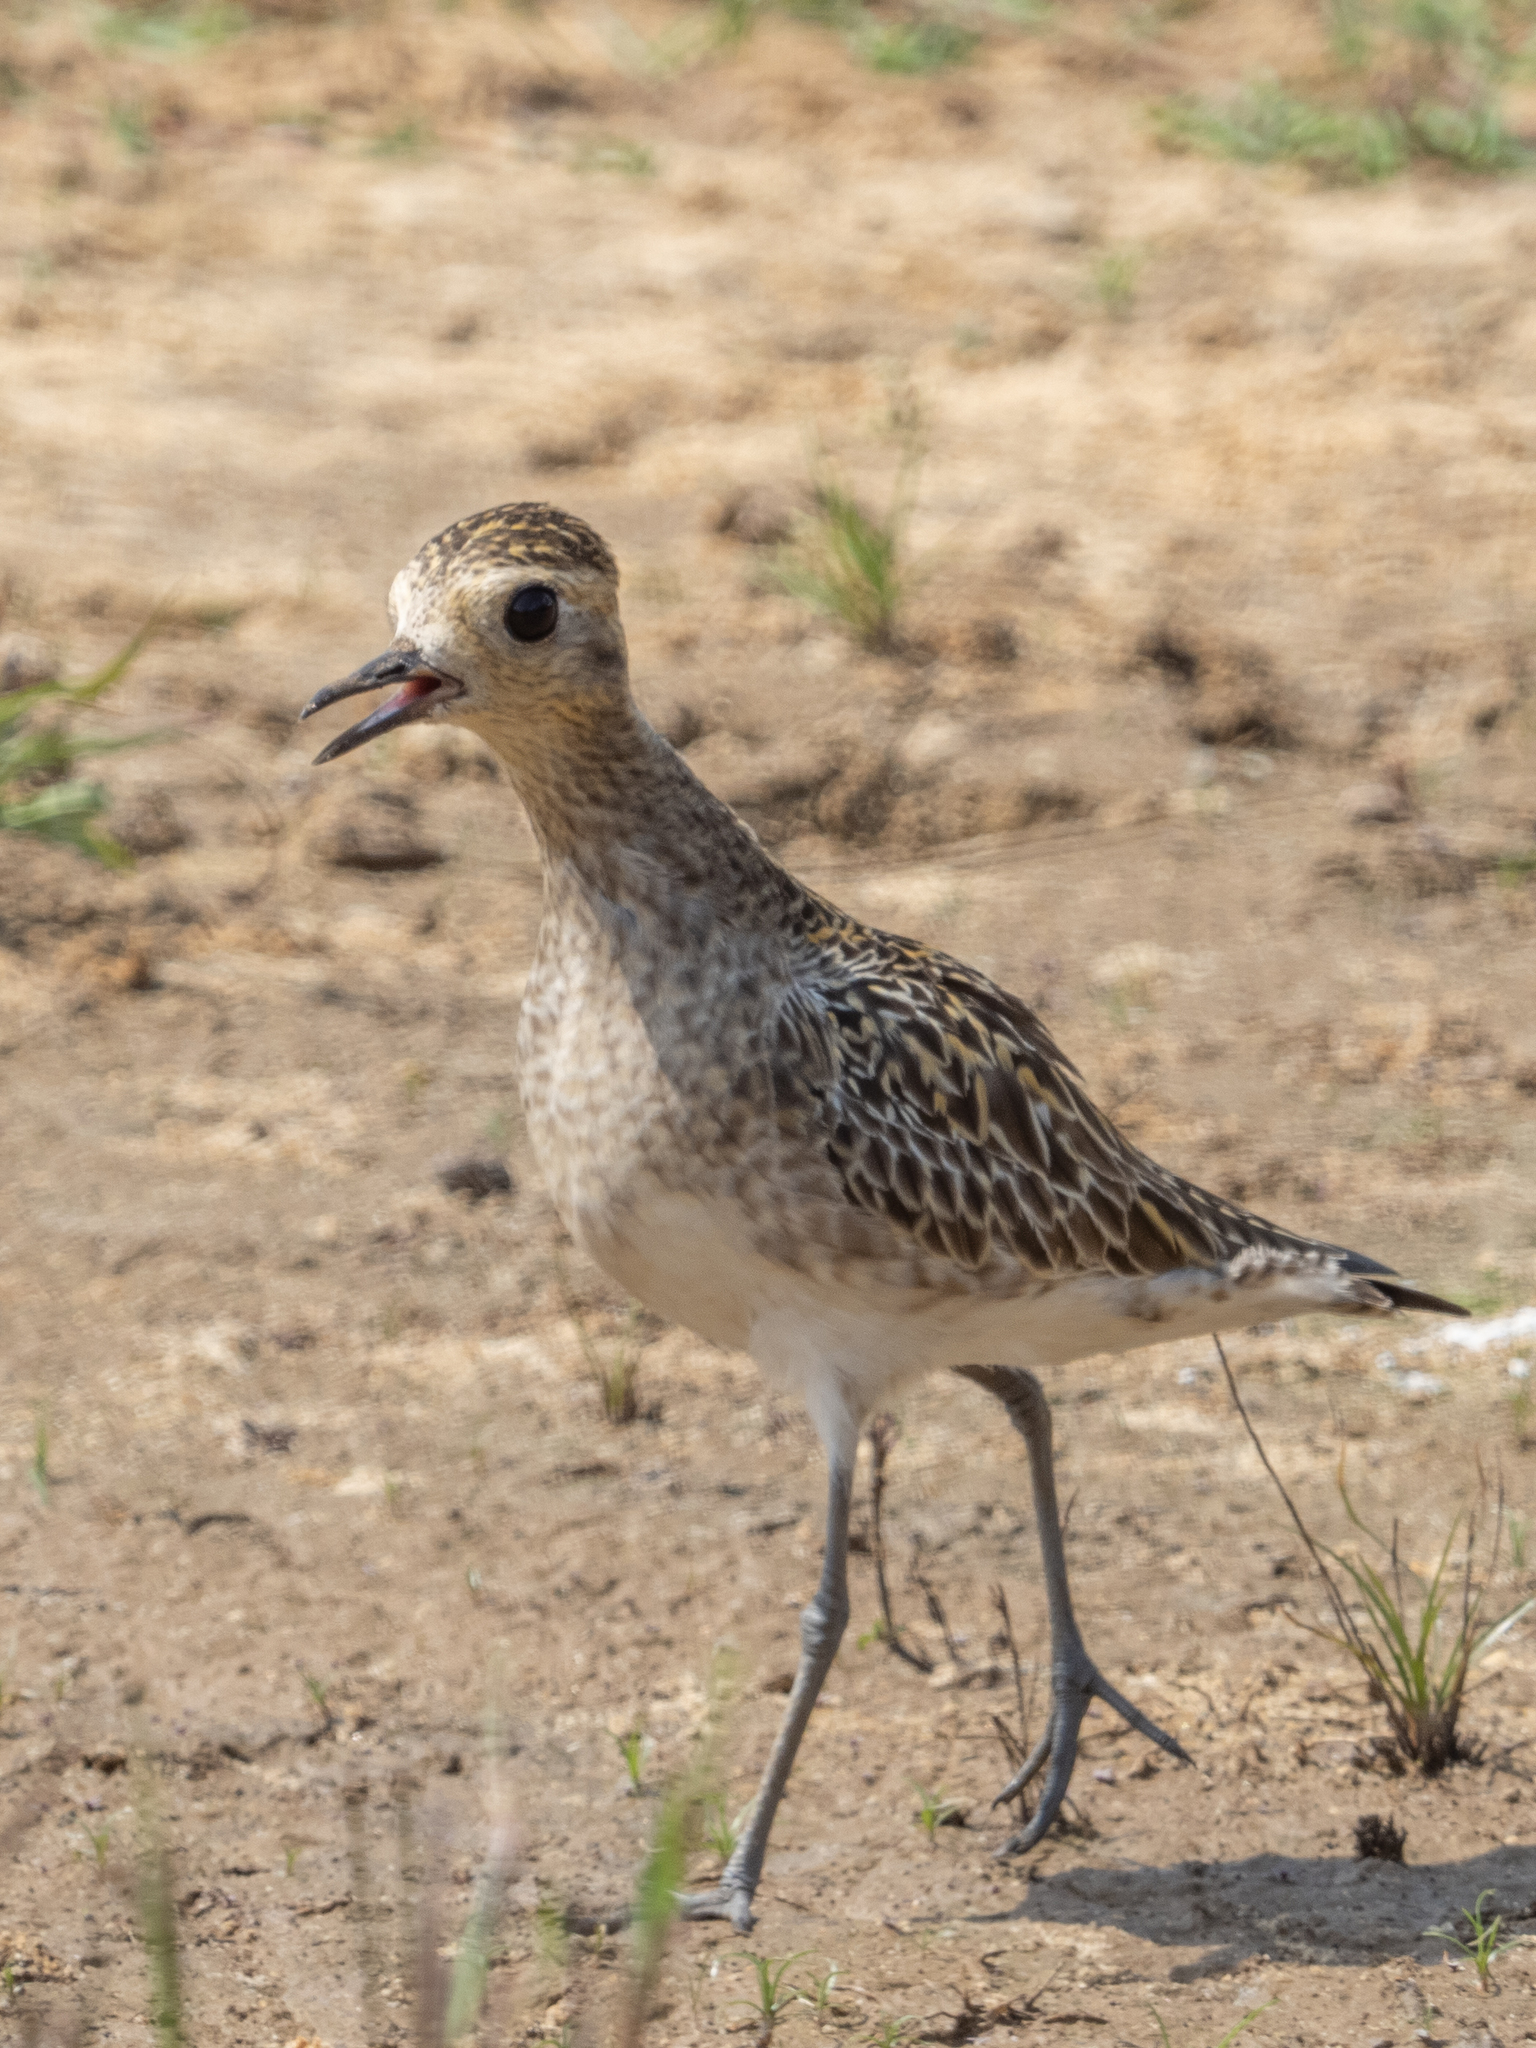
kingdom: Animalia
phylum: Chordata
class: Aves
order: Charadriiformes
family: Charadriidae
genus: Pluvialis
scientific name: Pluvialis fulva
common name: Pacific golden plover
